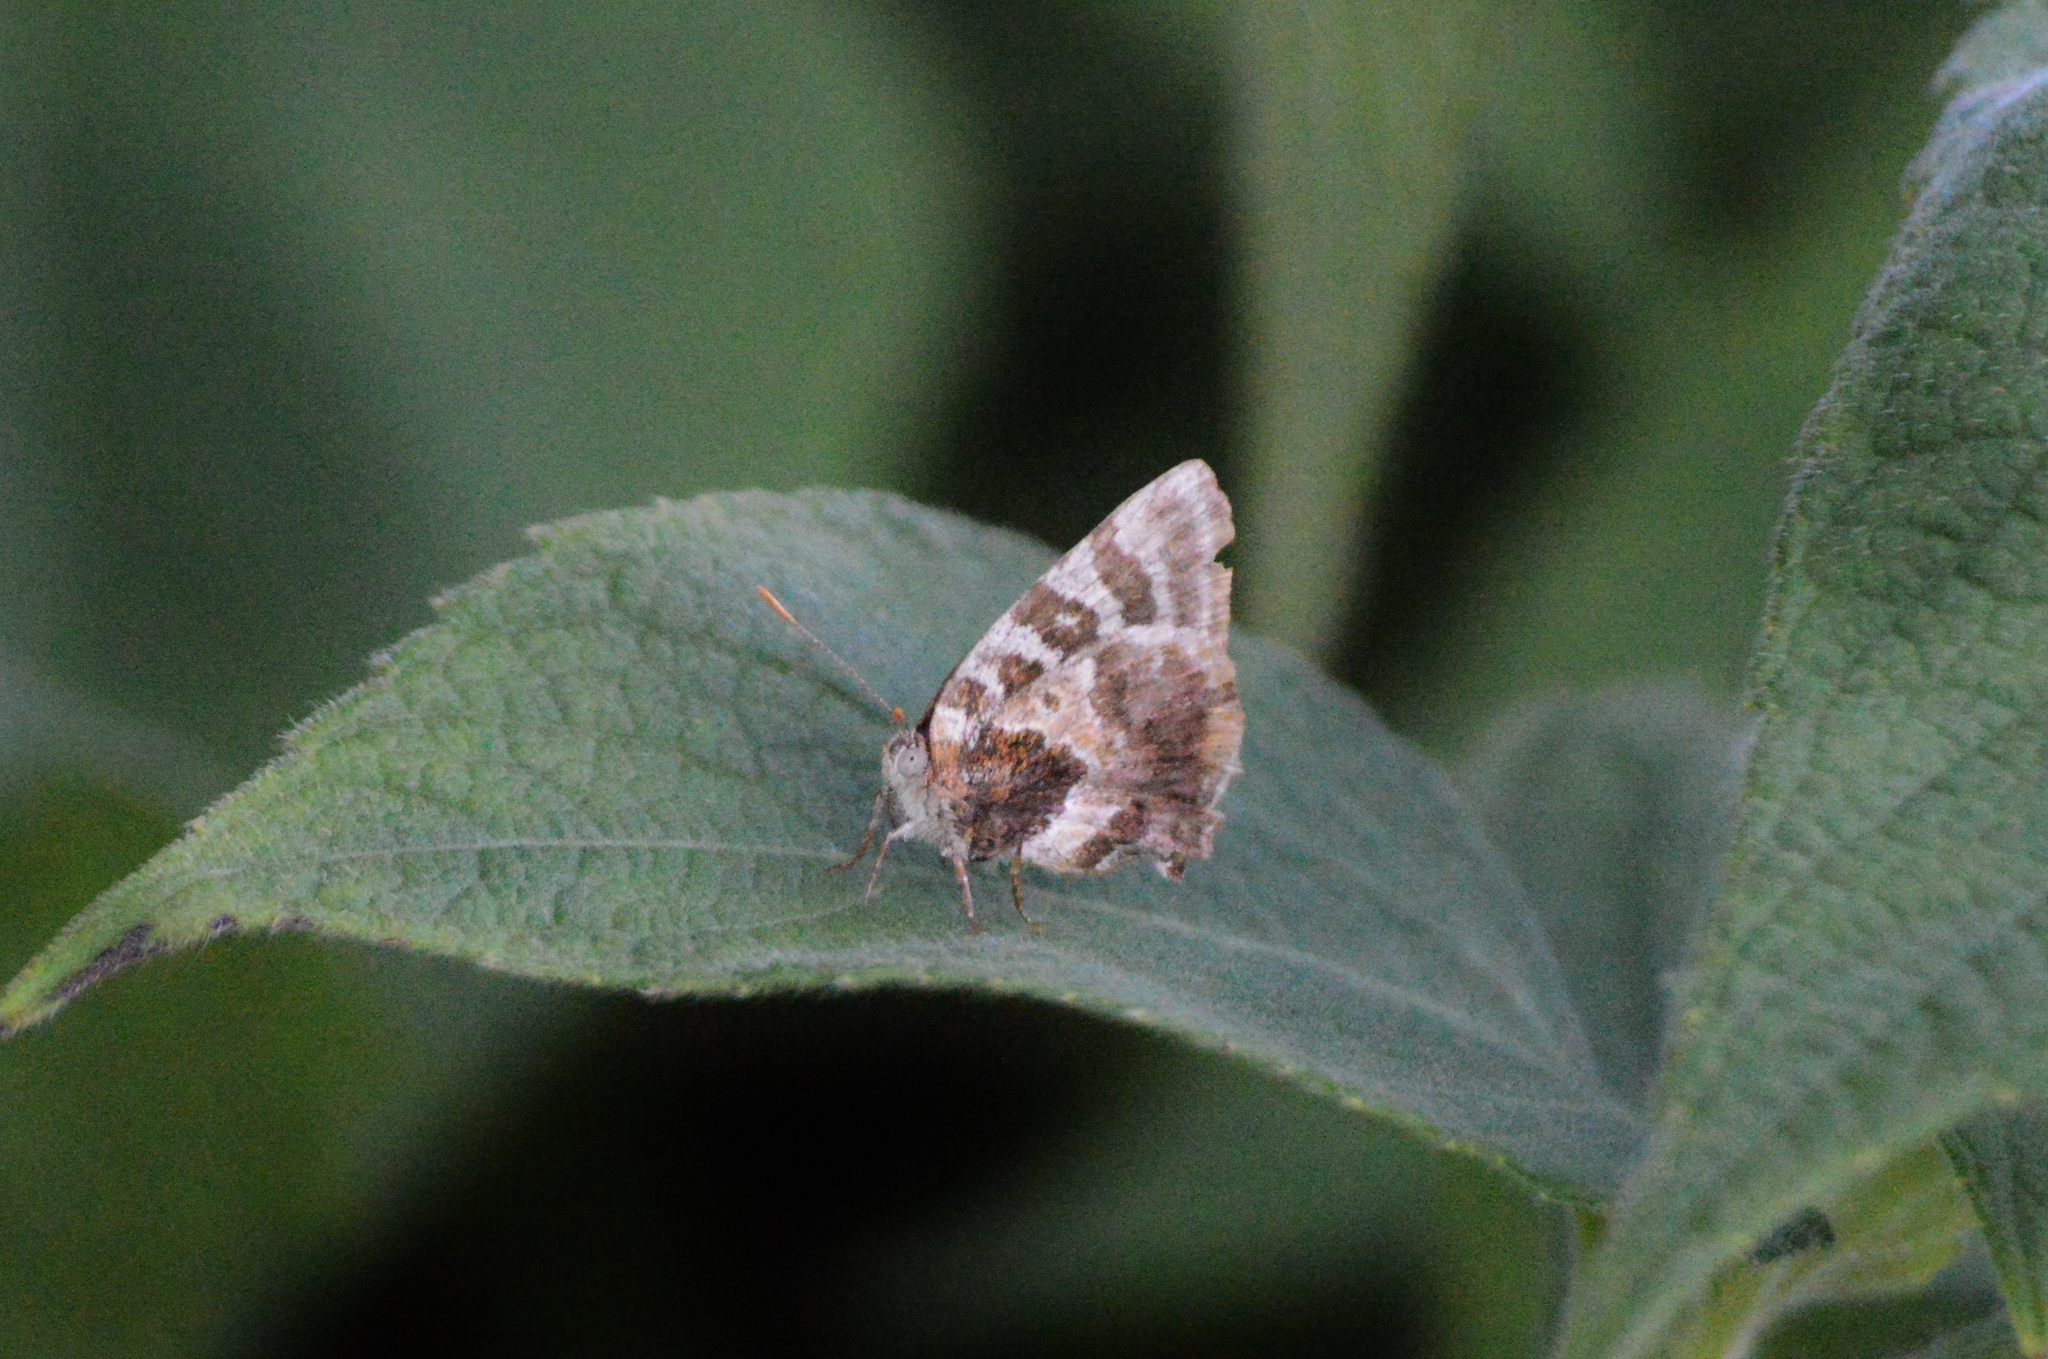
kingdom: Animalia
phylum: Arthropoda
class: Insecta
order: Lepidoptera
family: Lycaenidae
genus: Arawacus
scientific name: Arawacus ellida
